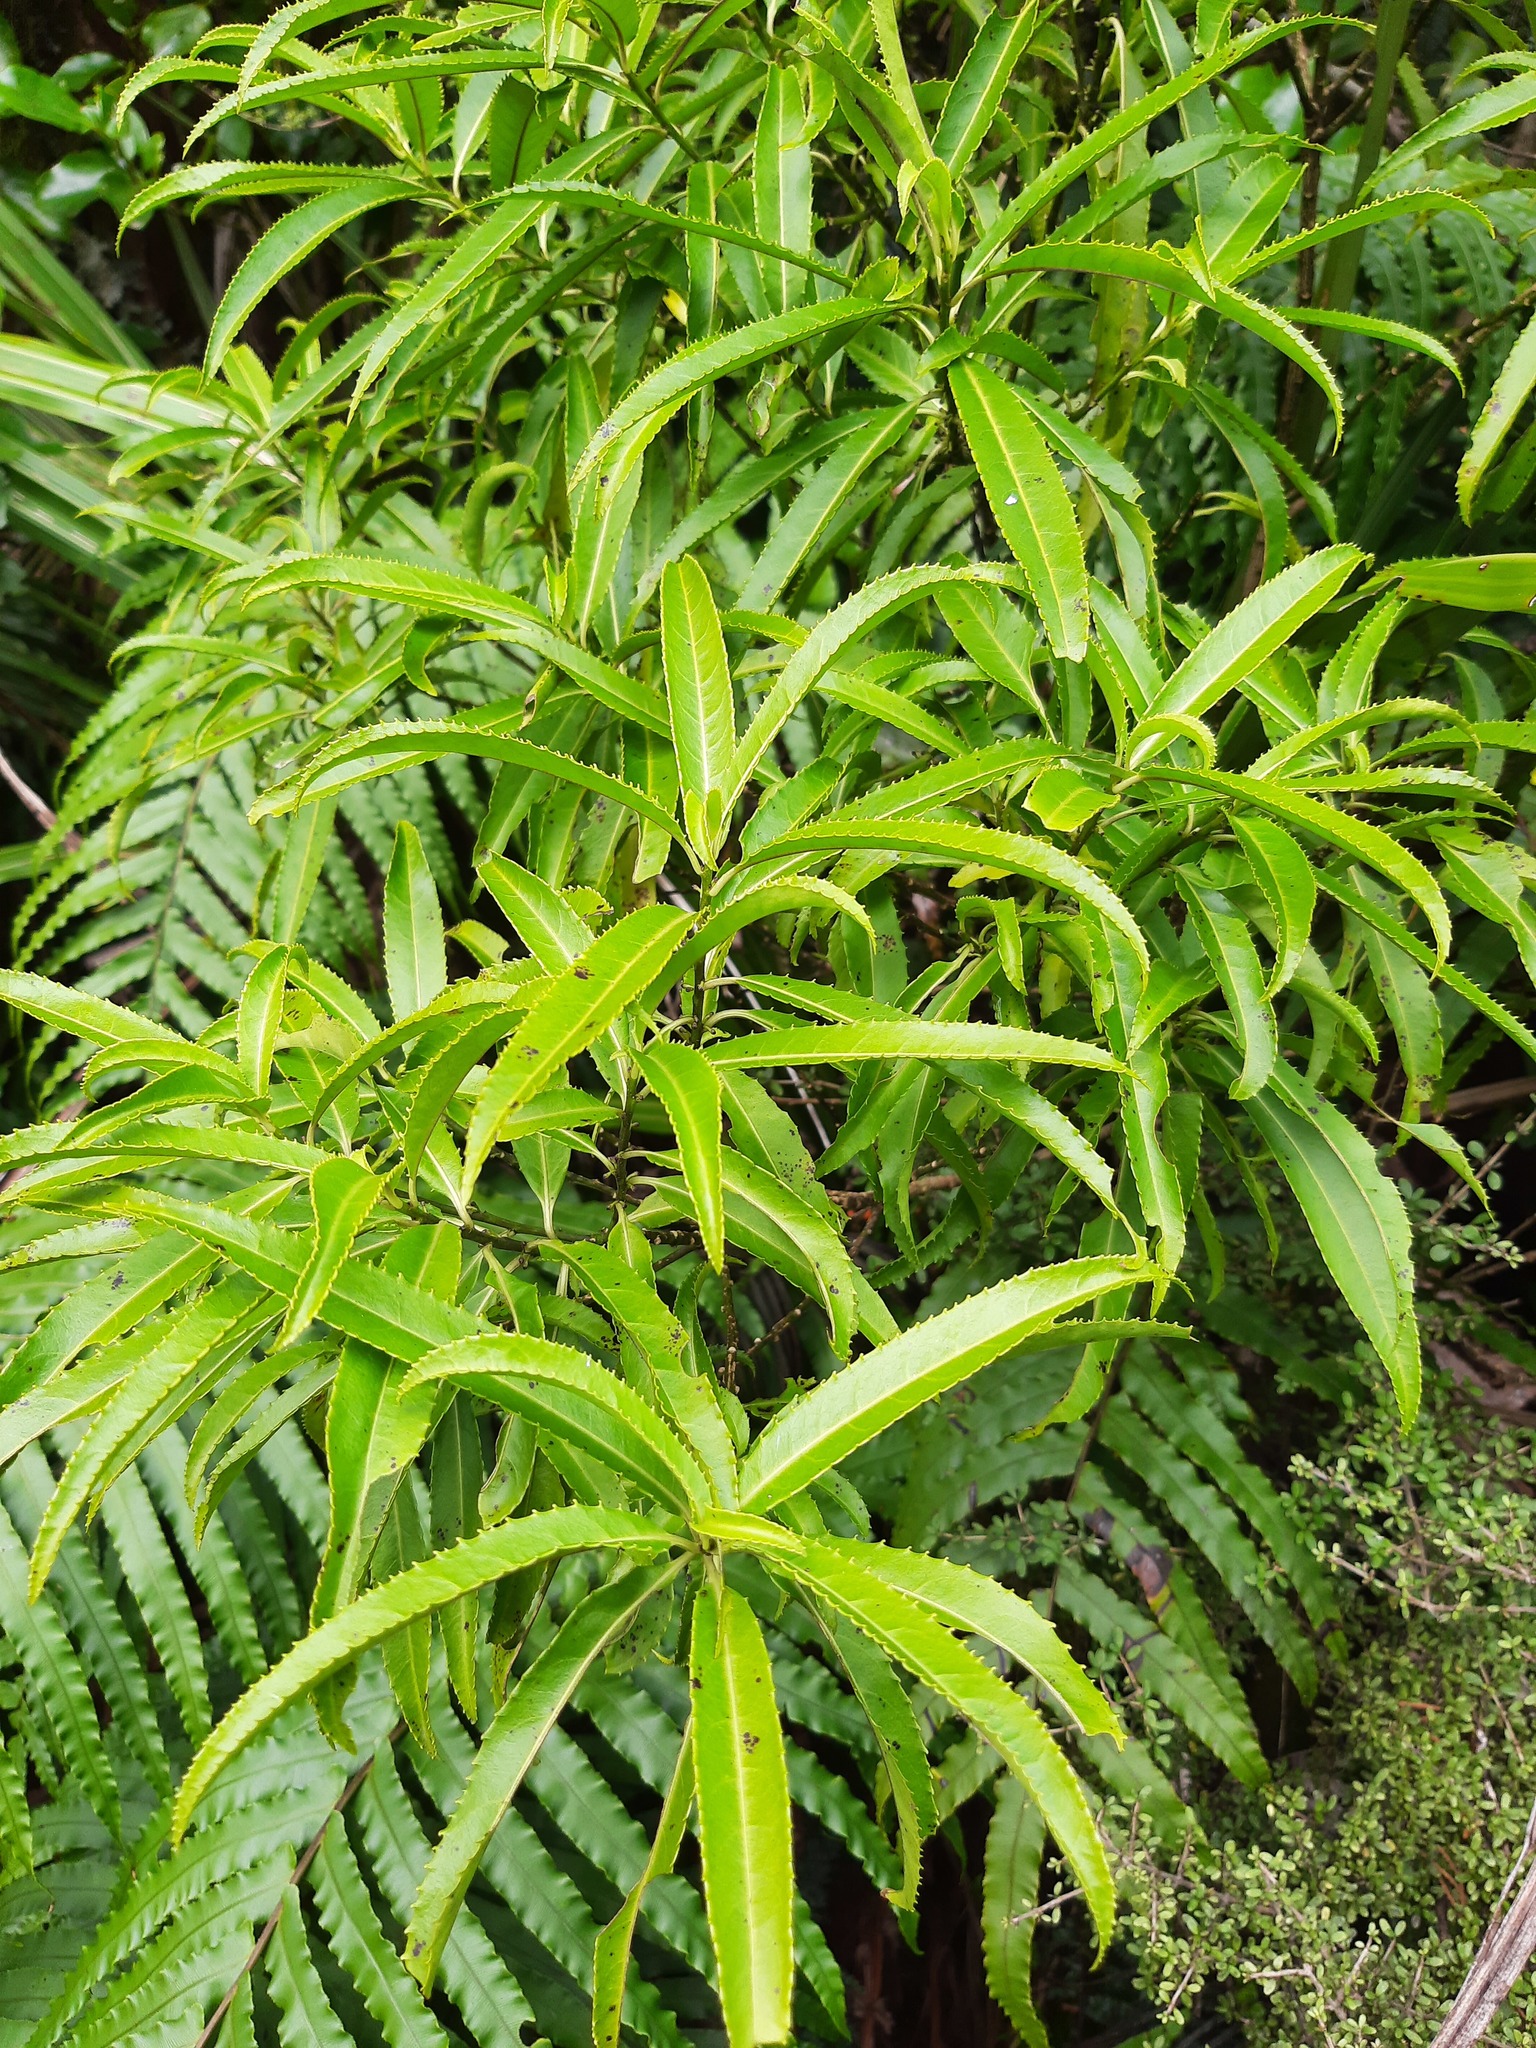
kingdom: Plantae
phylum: Tracheophyta
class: Magnoliopsida
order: Malpighiales
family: Violaceae
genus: Melicytus
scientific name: Melicytus lanceolatus
